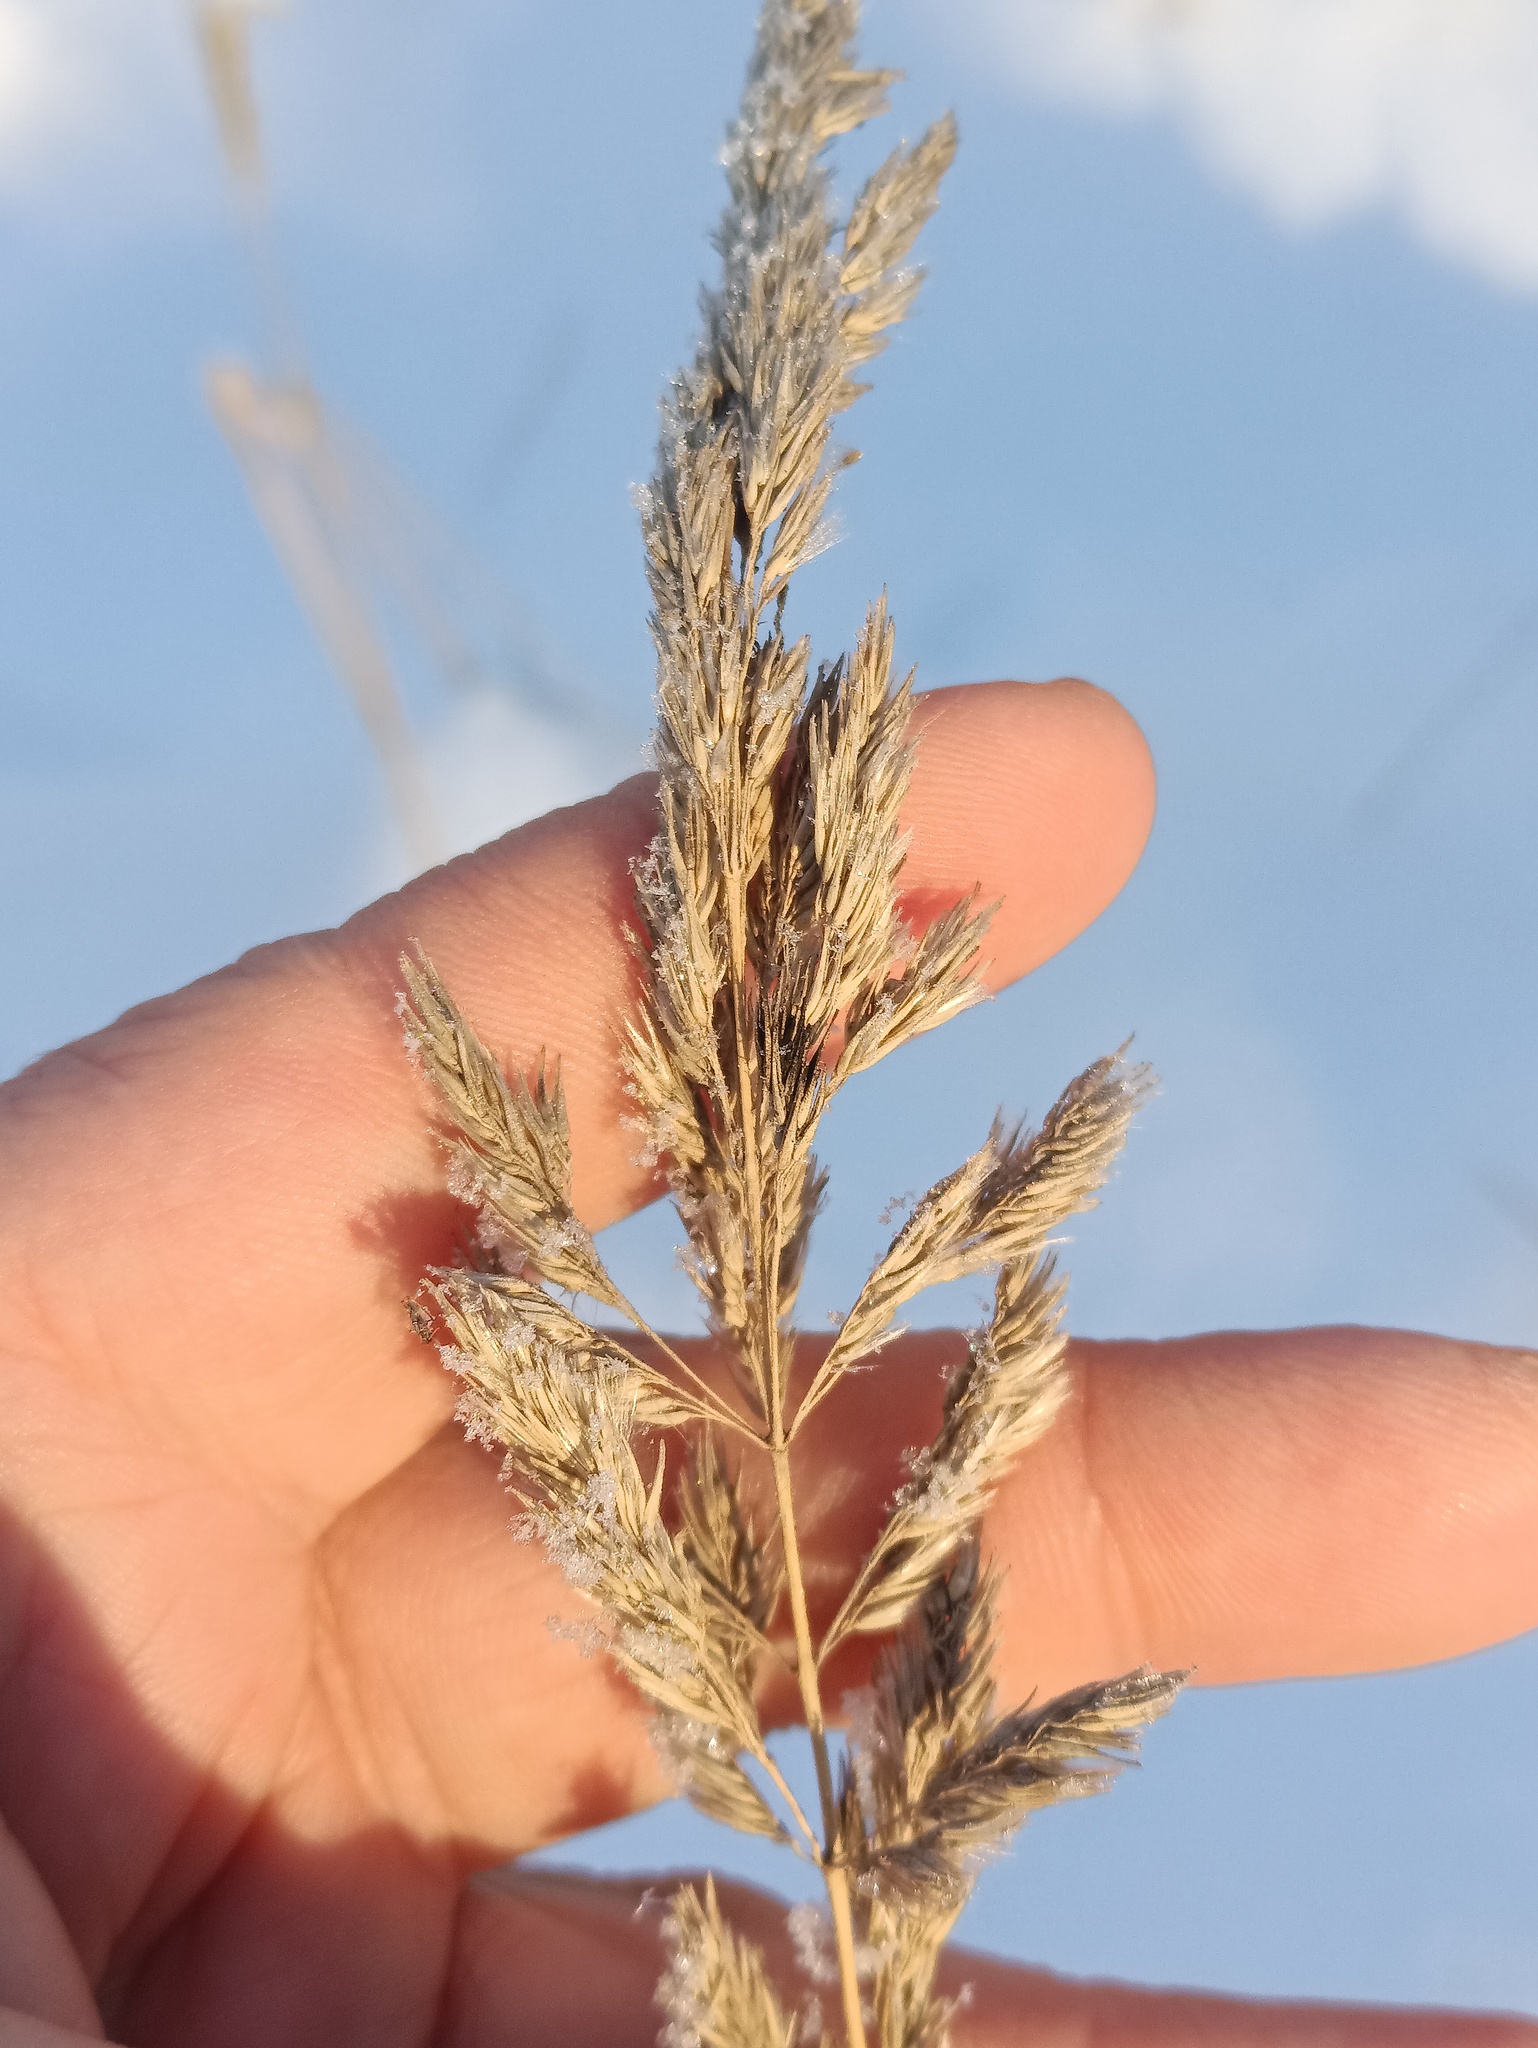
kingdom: Plantae
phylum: Tracheophyta
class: Liliopsida
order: Poales
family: Poaceae
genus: Calamagrostis
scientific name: Calamagrostis epigejos
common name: Wood small-reed
